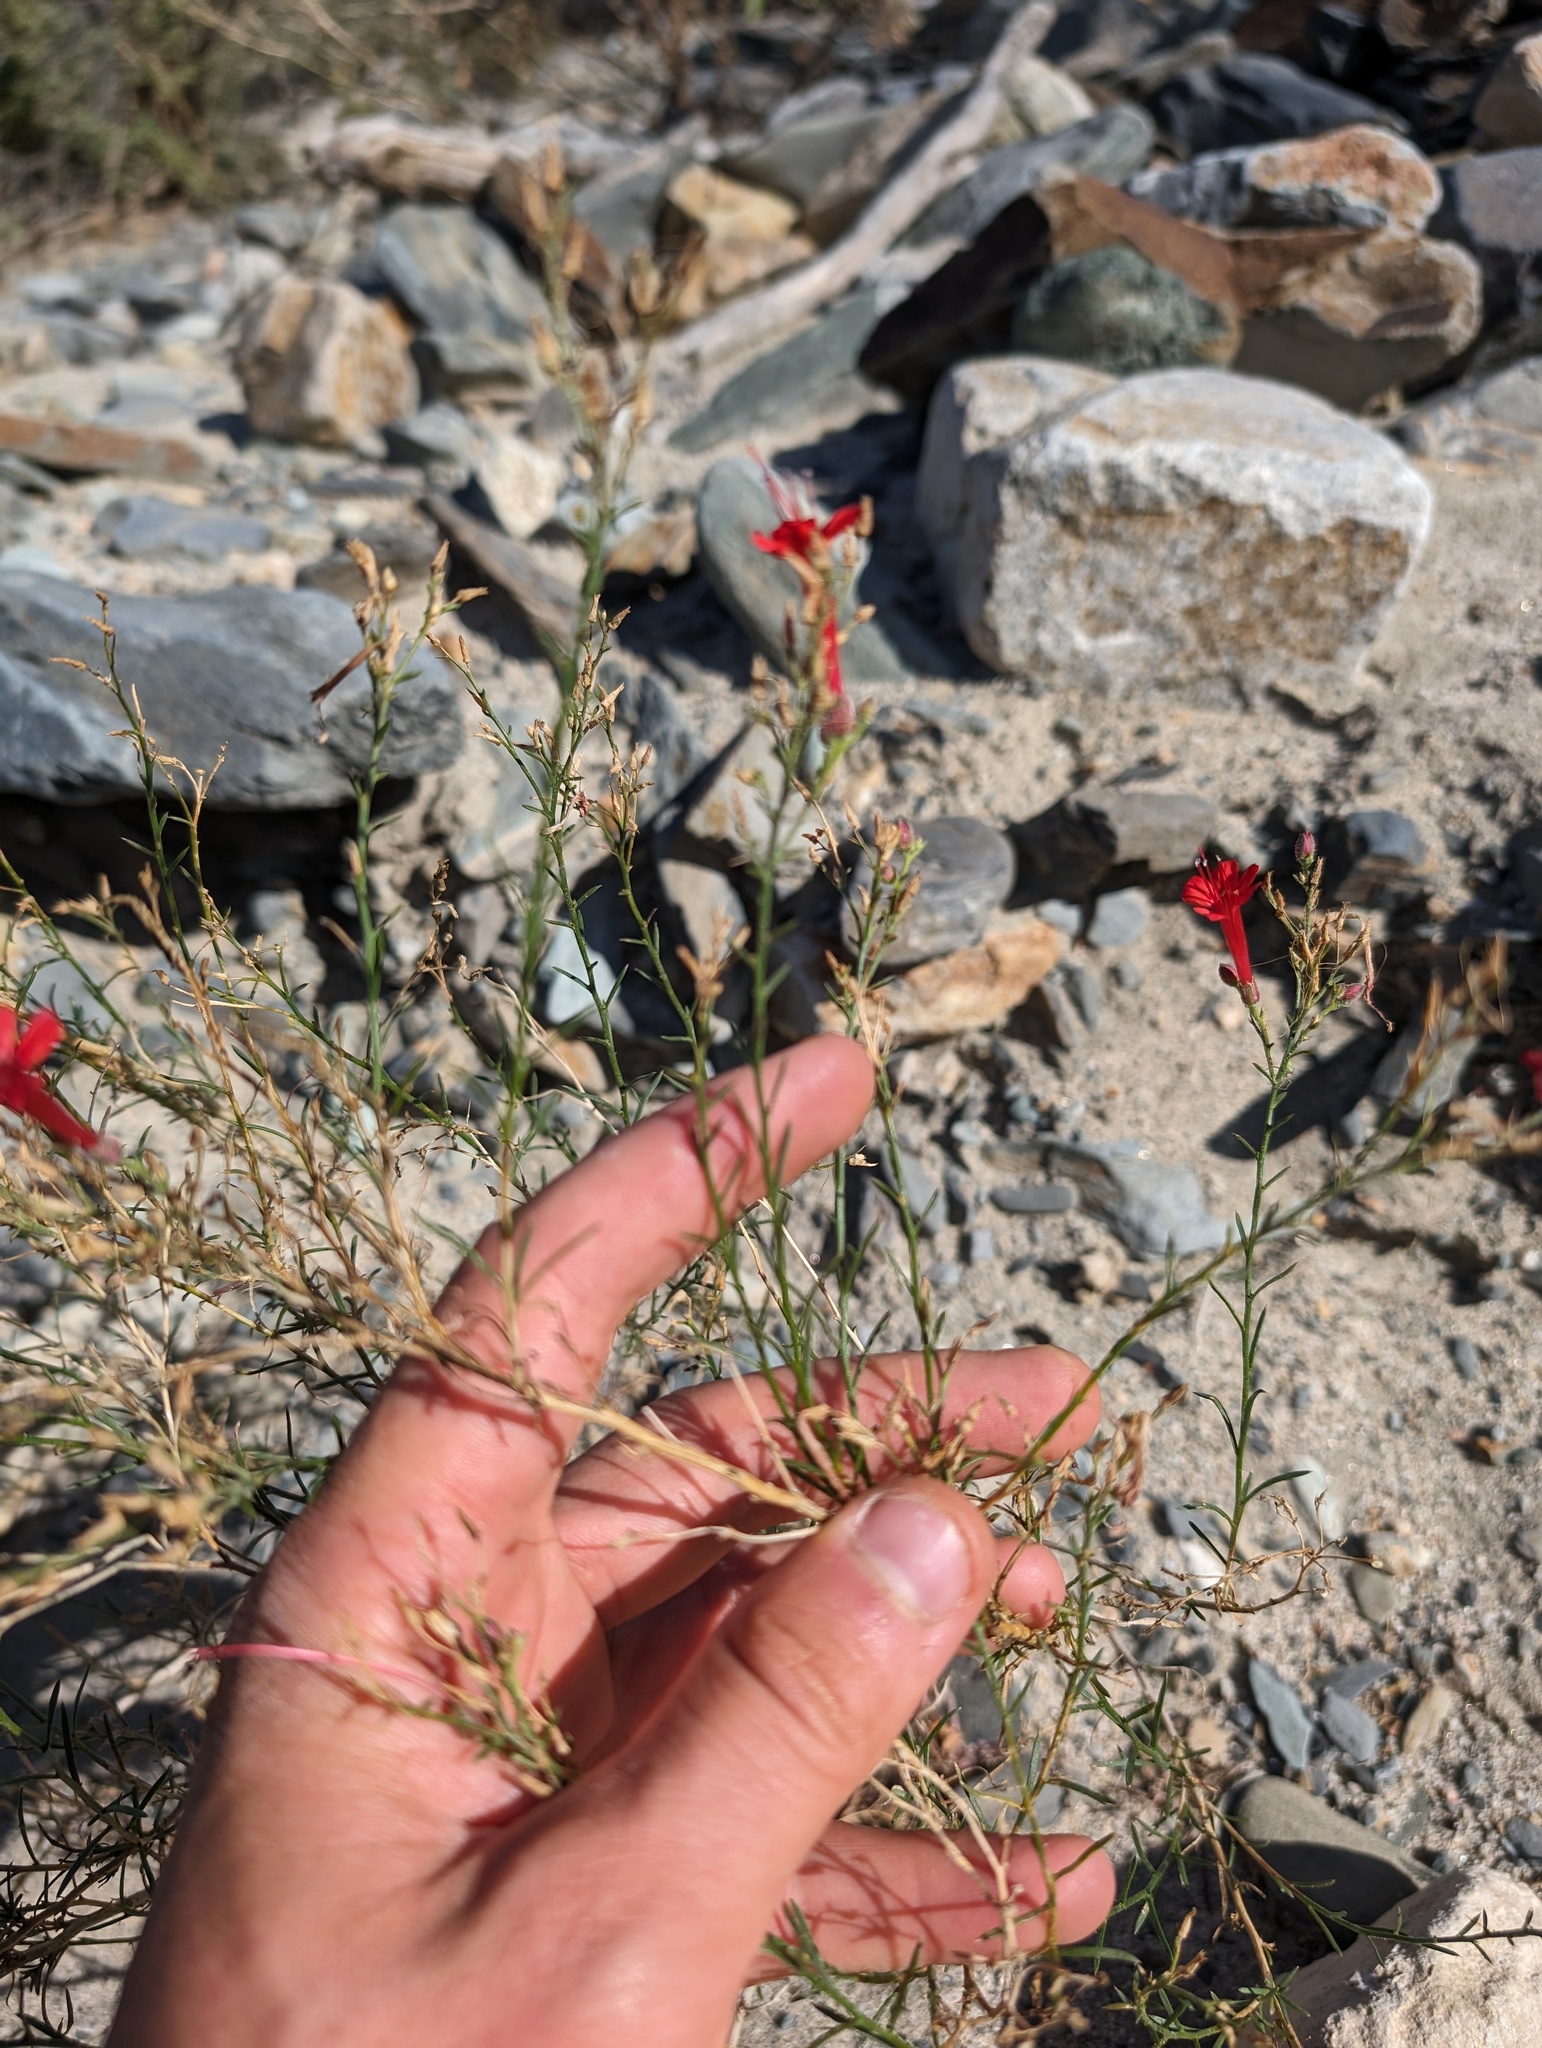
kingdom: Plantae
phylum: Tracheophyta
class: Magnoliopsida
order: Ericales
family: Polemoniaceae
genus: Ipomopsis
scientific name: Ipomopsis tenuifolia
